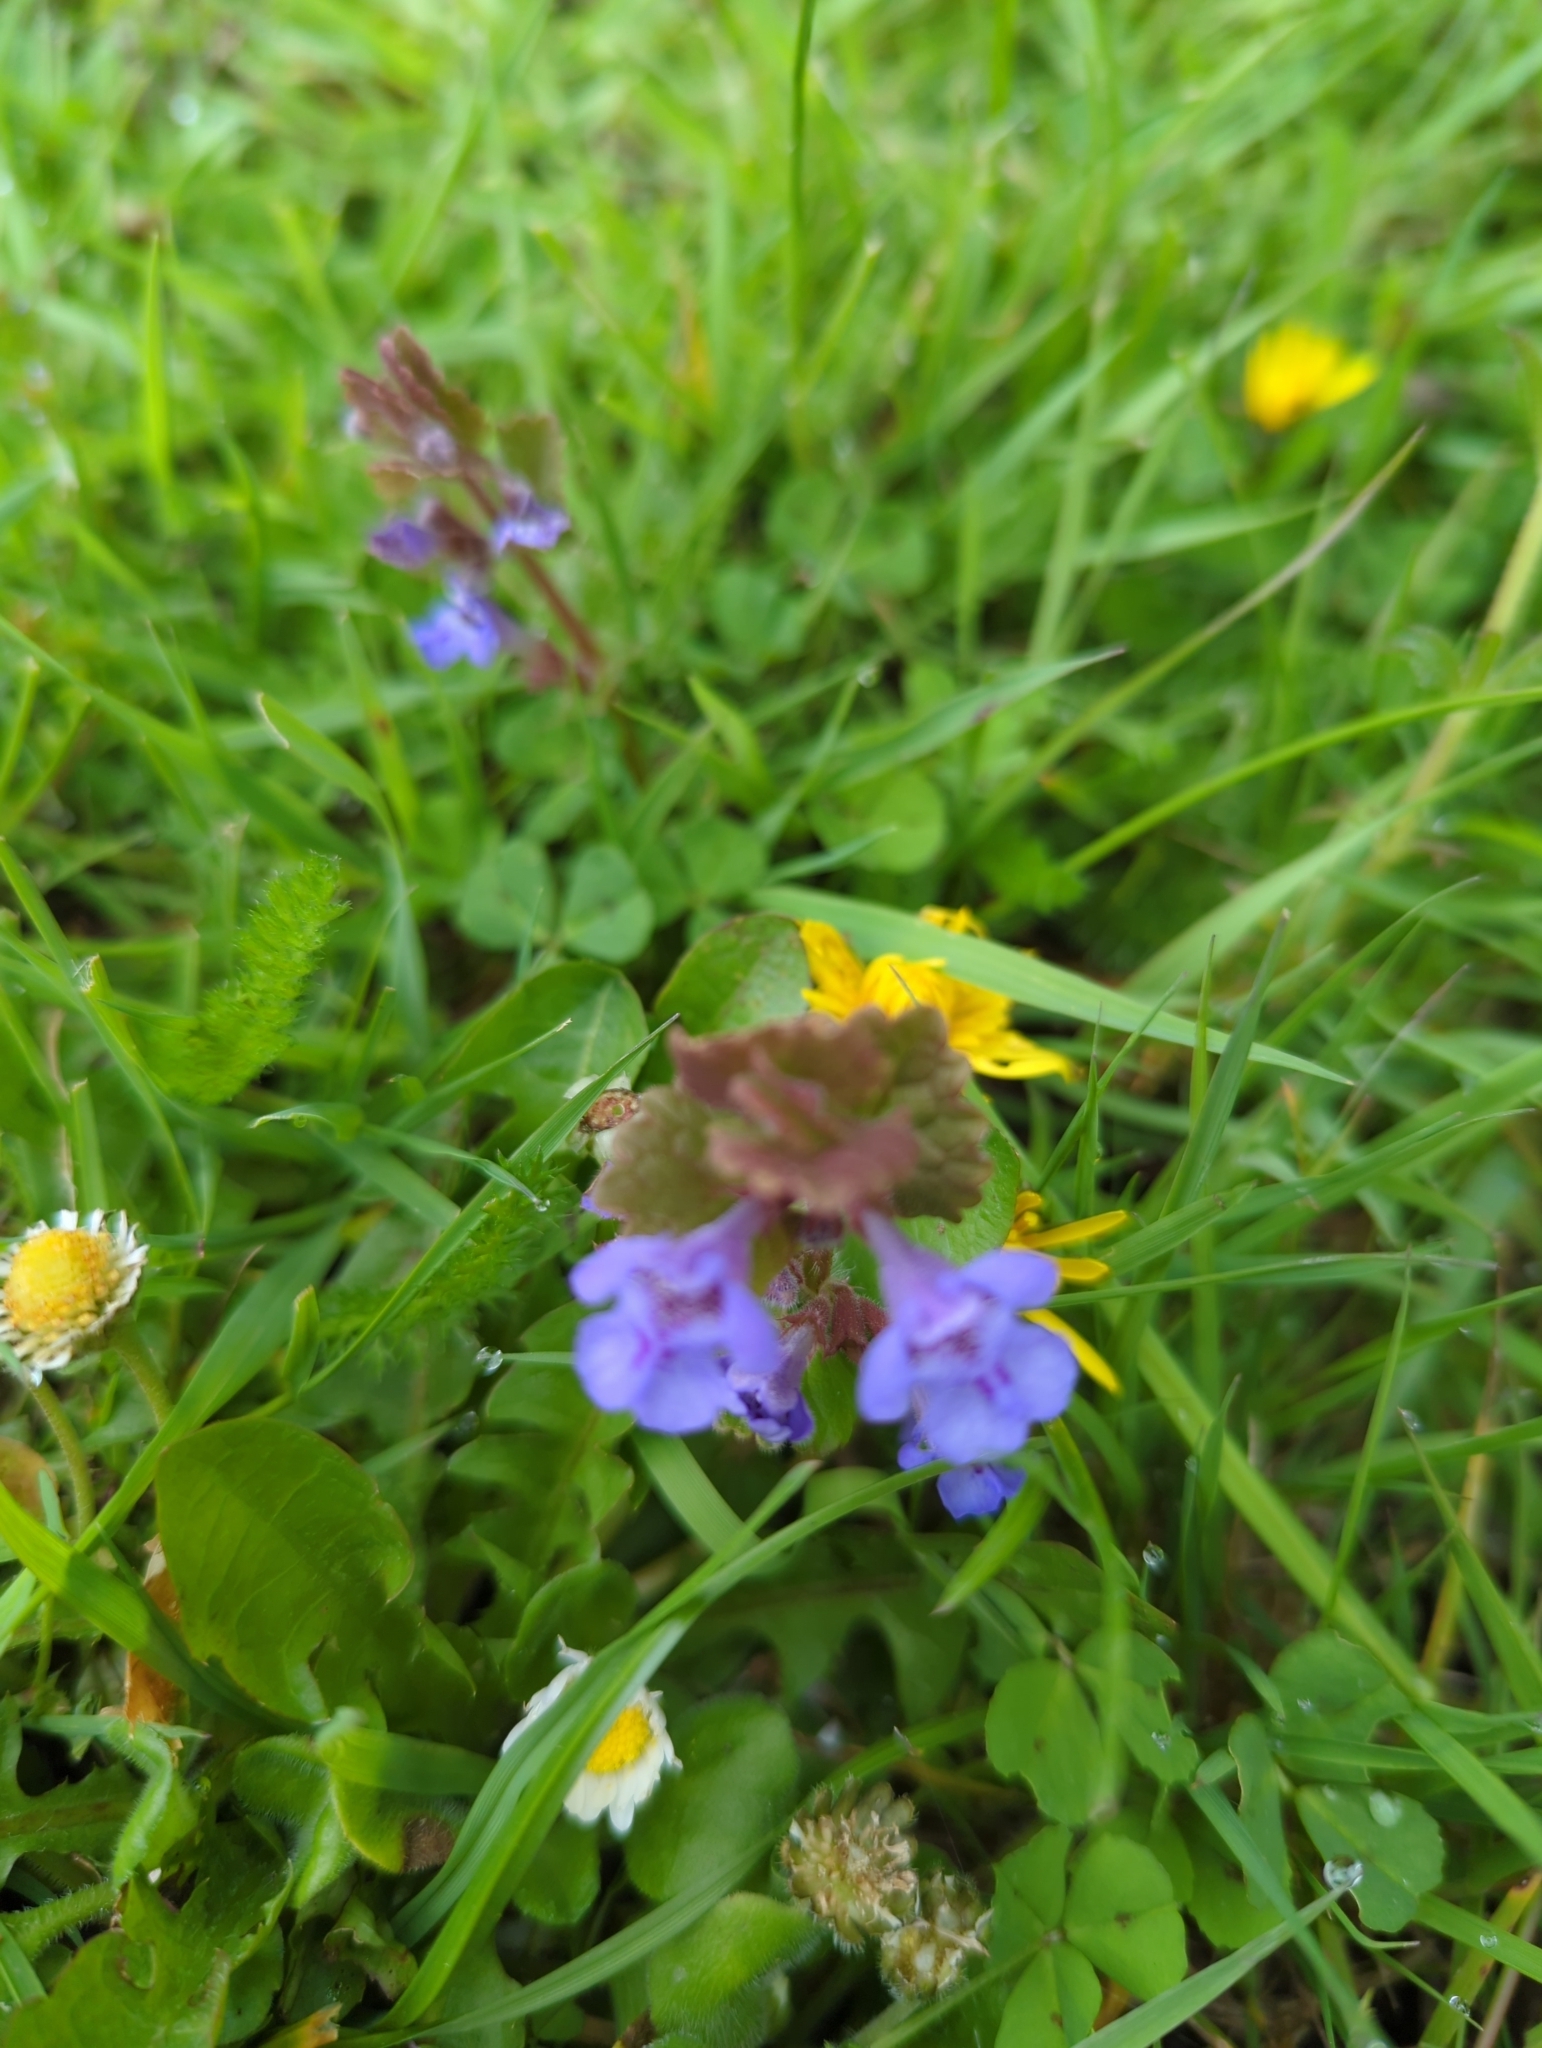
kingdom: Plantae
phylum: Tracheophyta
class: Magnoliopsida
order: Lamiales
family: Lamiaceae
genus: Glechoma
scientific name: Glechoma hederacea
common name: Ground ivy
